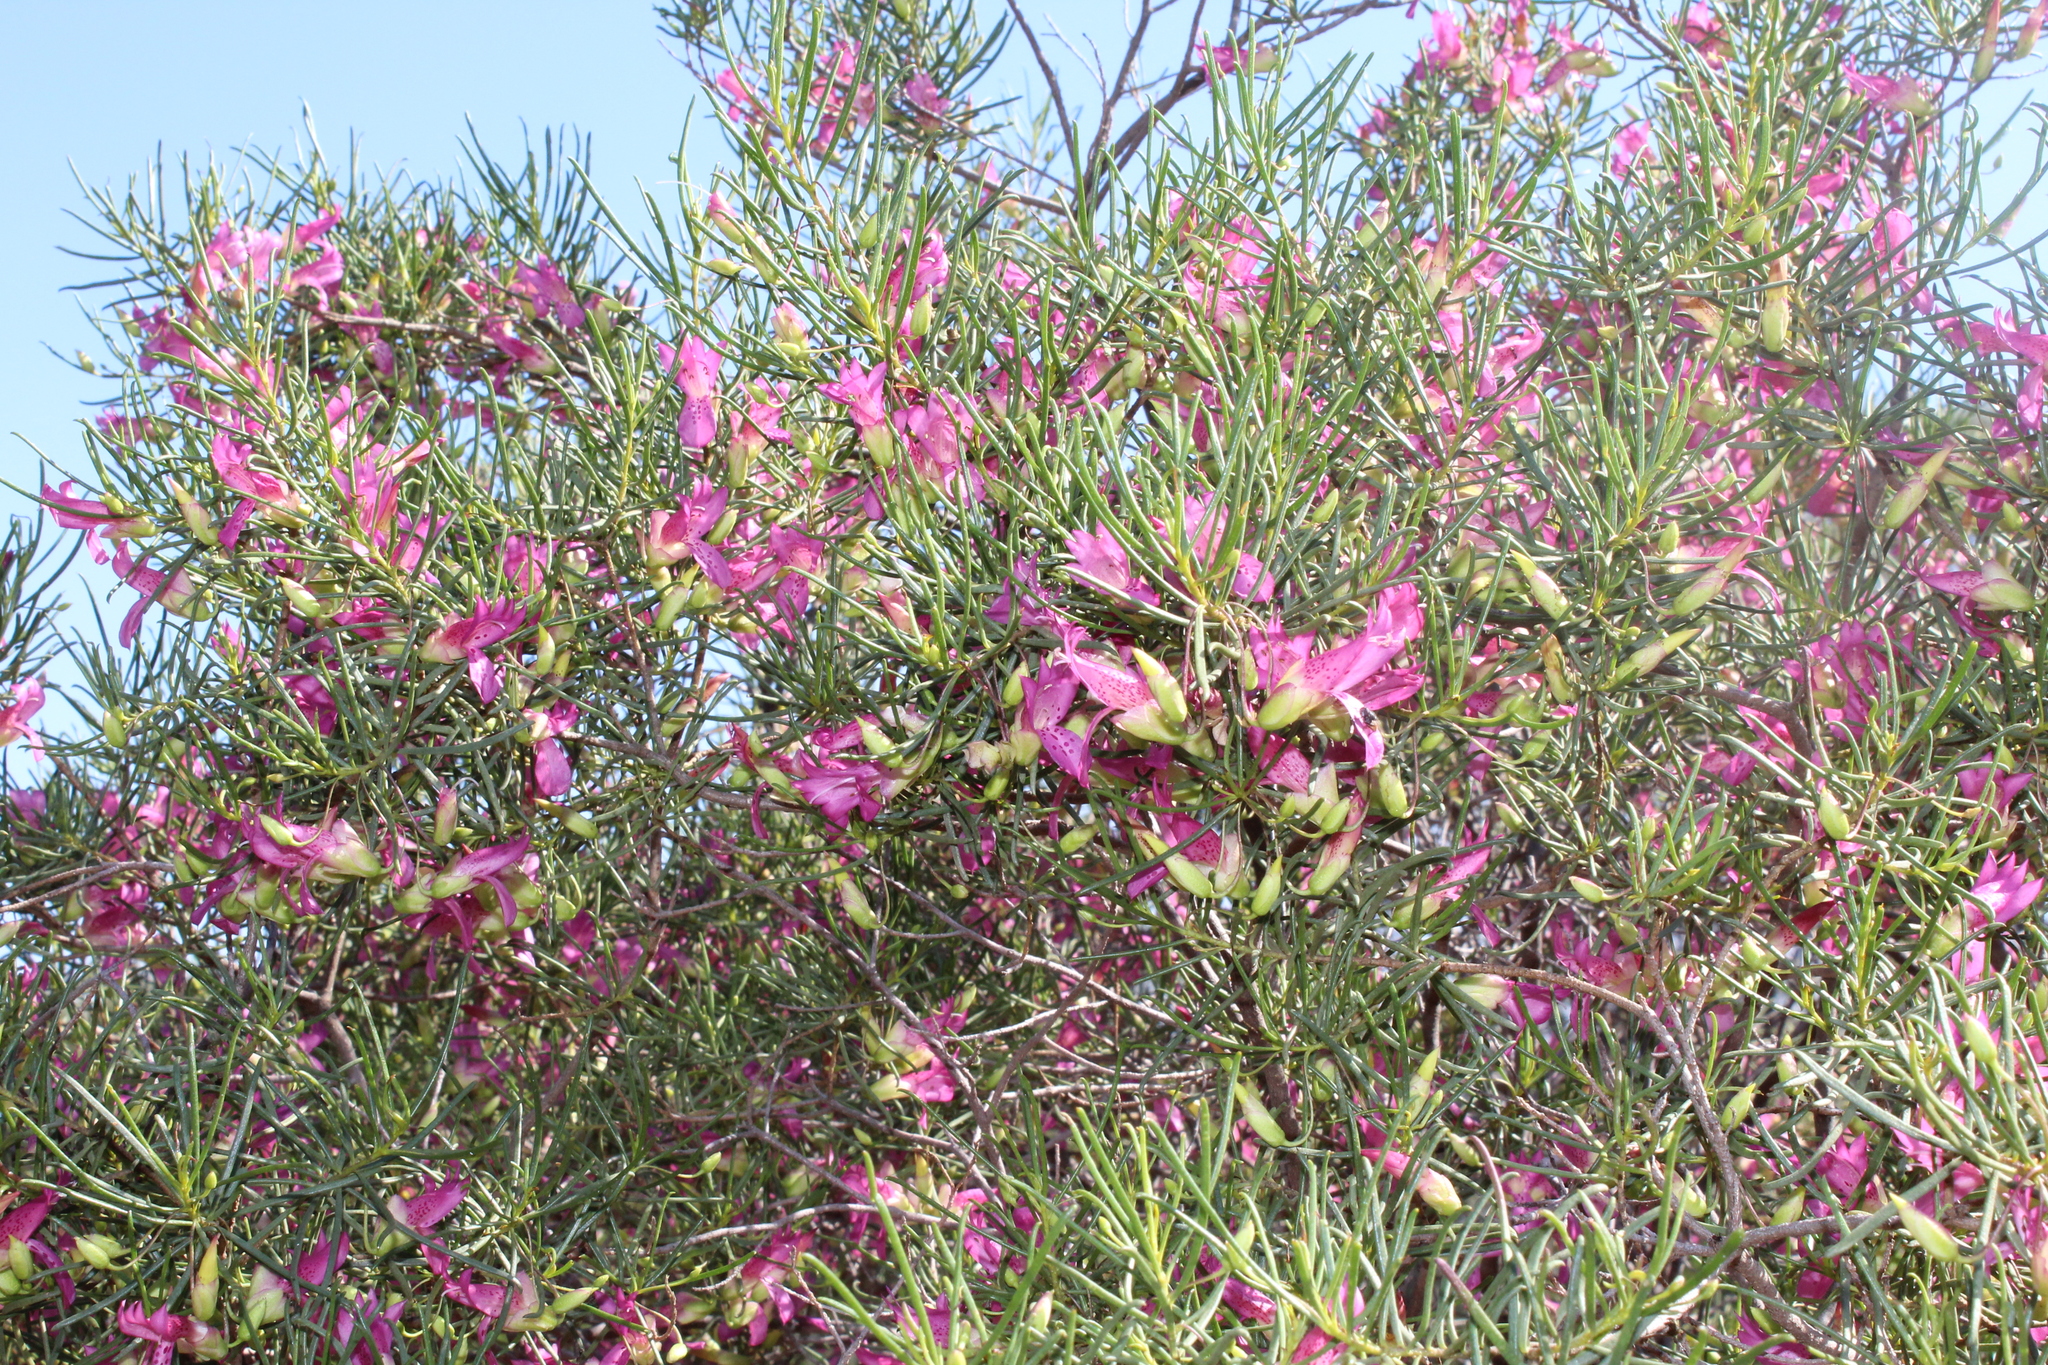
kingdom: Plantae
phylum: Tracheophyta
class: Magnoliopsida
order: Lamiales
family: Scrophulariaceae
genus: Eremophila
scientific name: Eremophila alternifolia
